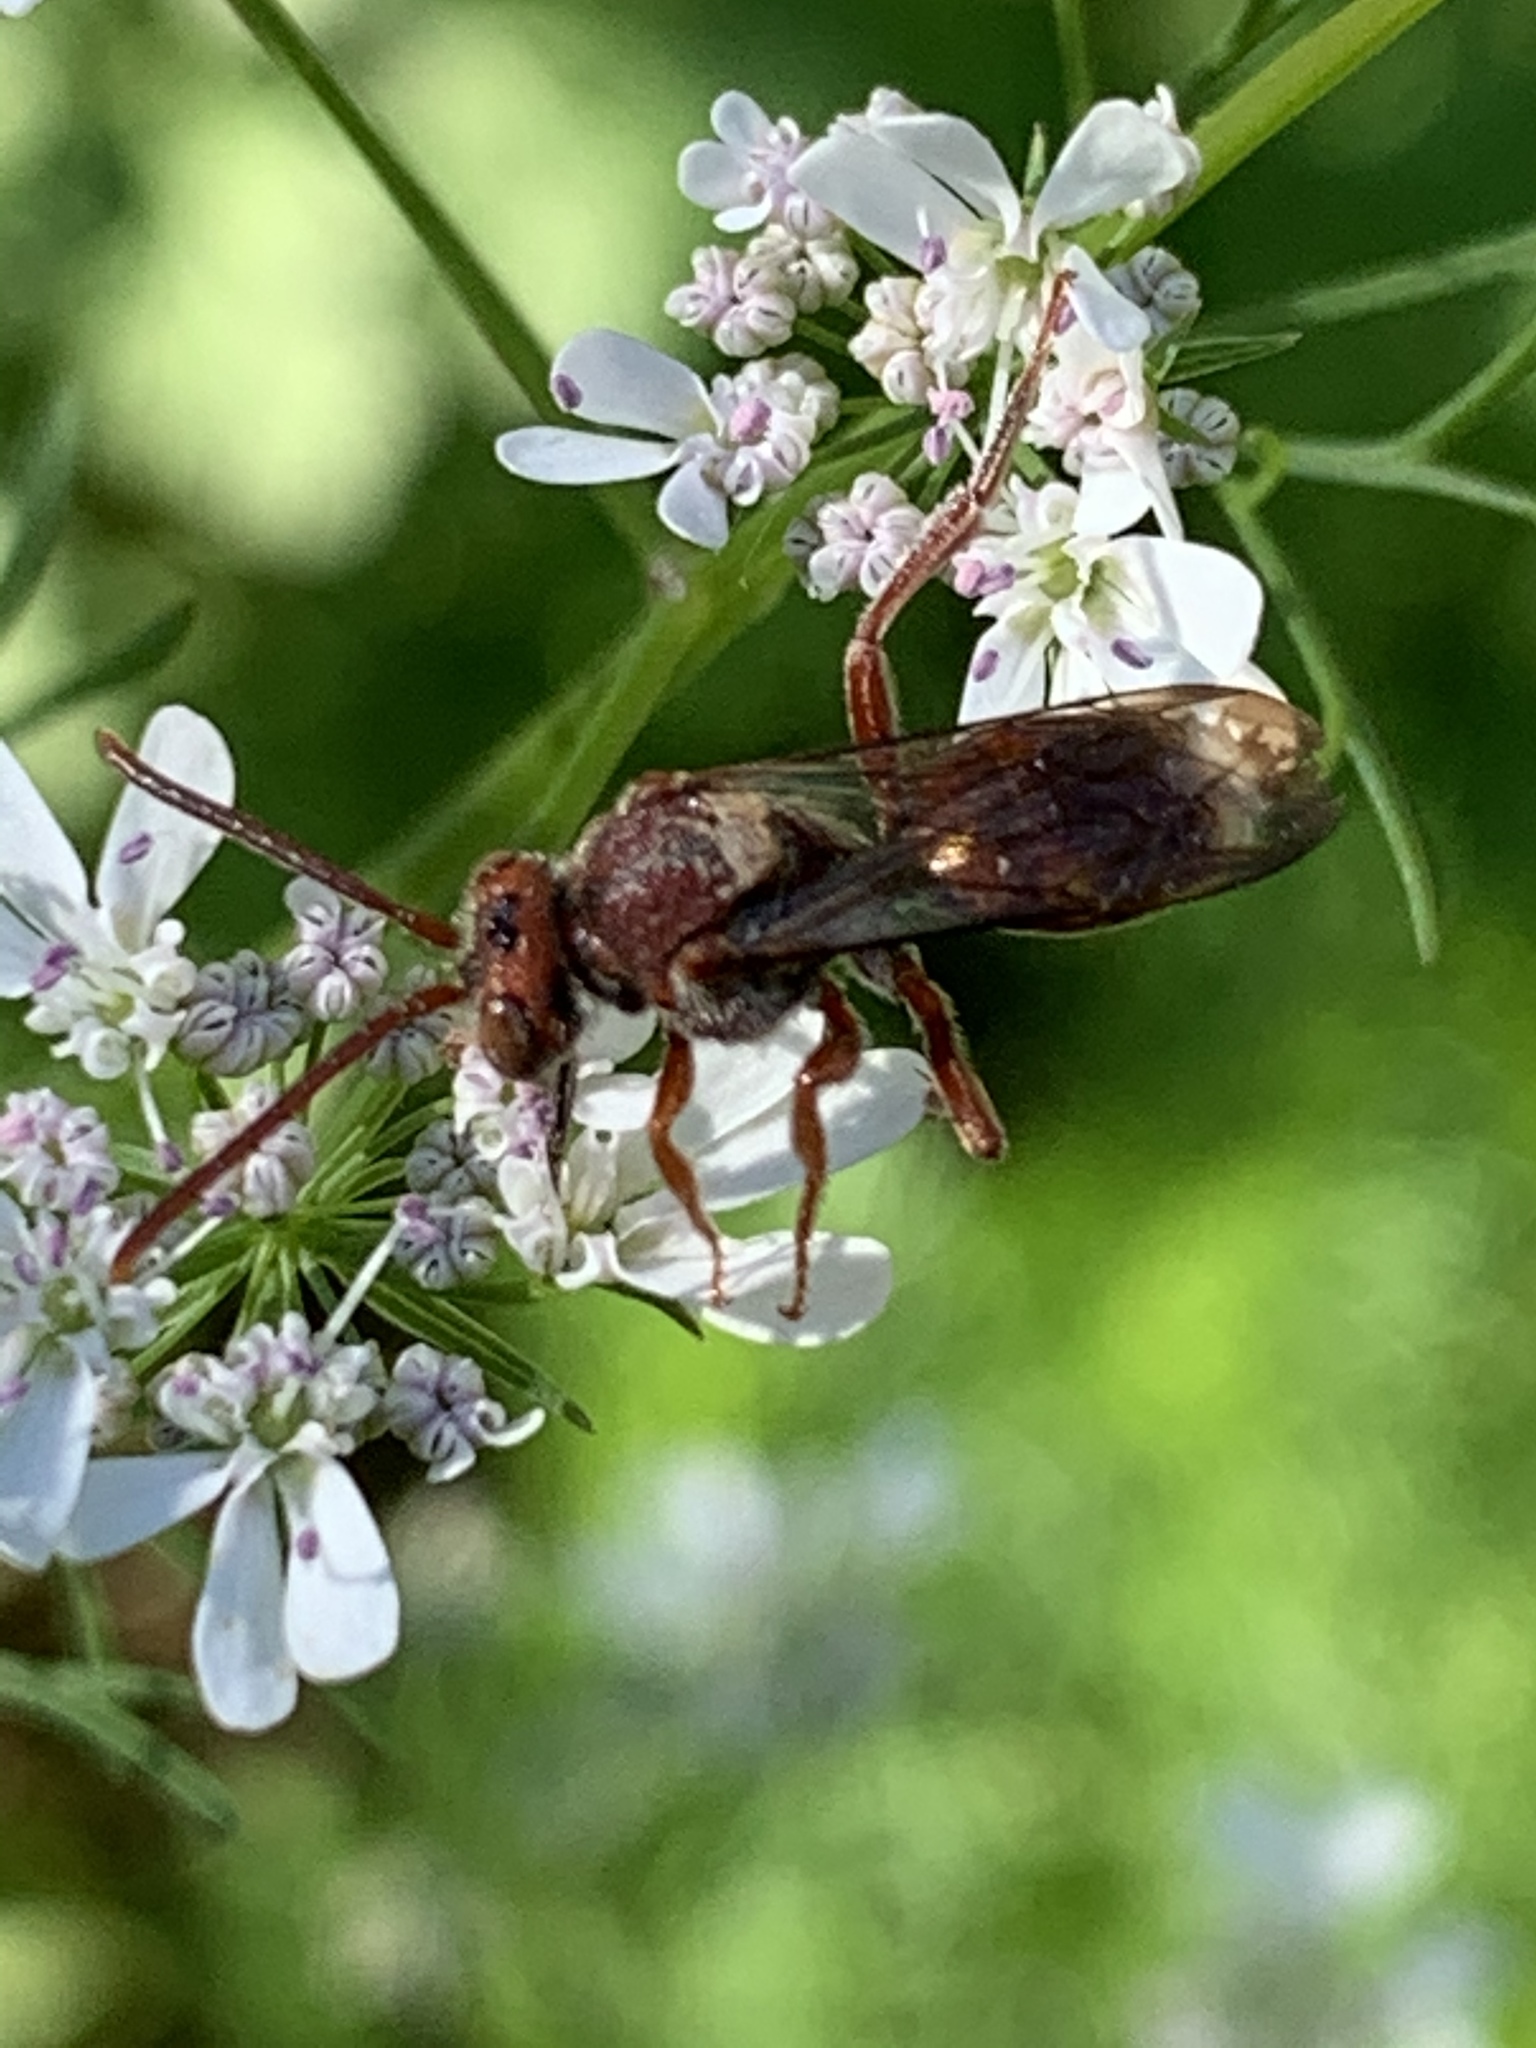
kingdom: Animalia
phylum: Arthropoda
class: Insecta
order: Hymenoptera
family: Apidae
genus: Nomada
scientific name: Nomada
